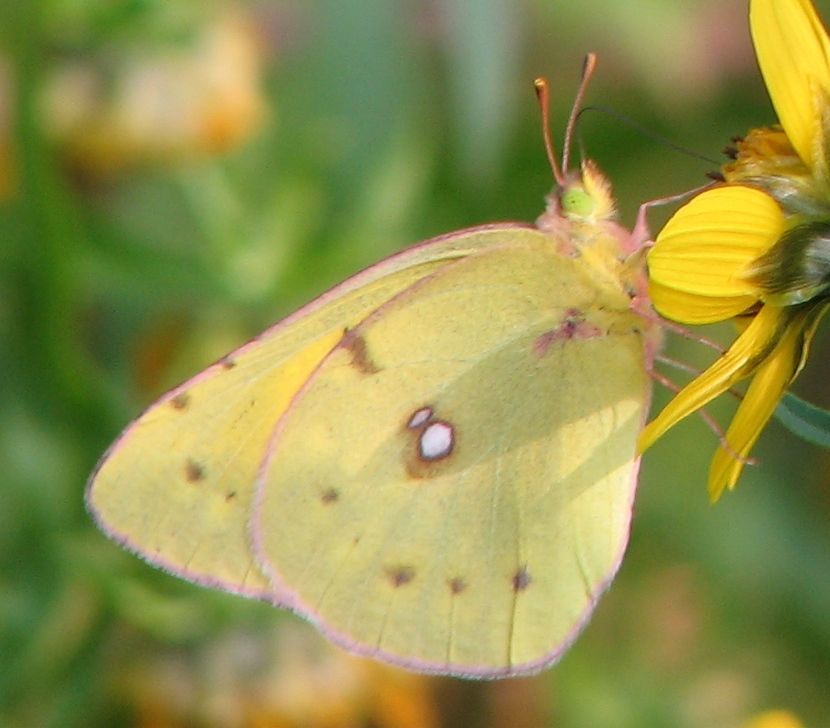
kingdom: Animalia
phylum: Arthropoda
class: Insecta
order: Lepidoptera
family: Pieridae
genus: Colias
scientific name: Colias eurytheme
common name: Alfalfa butterfly
